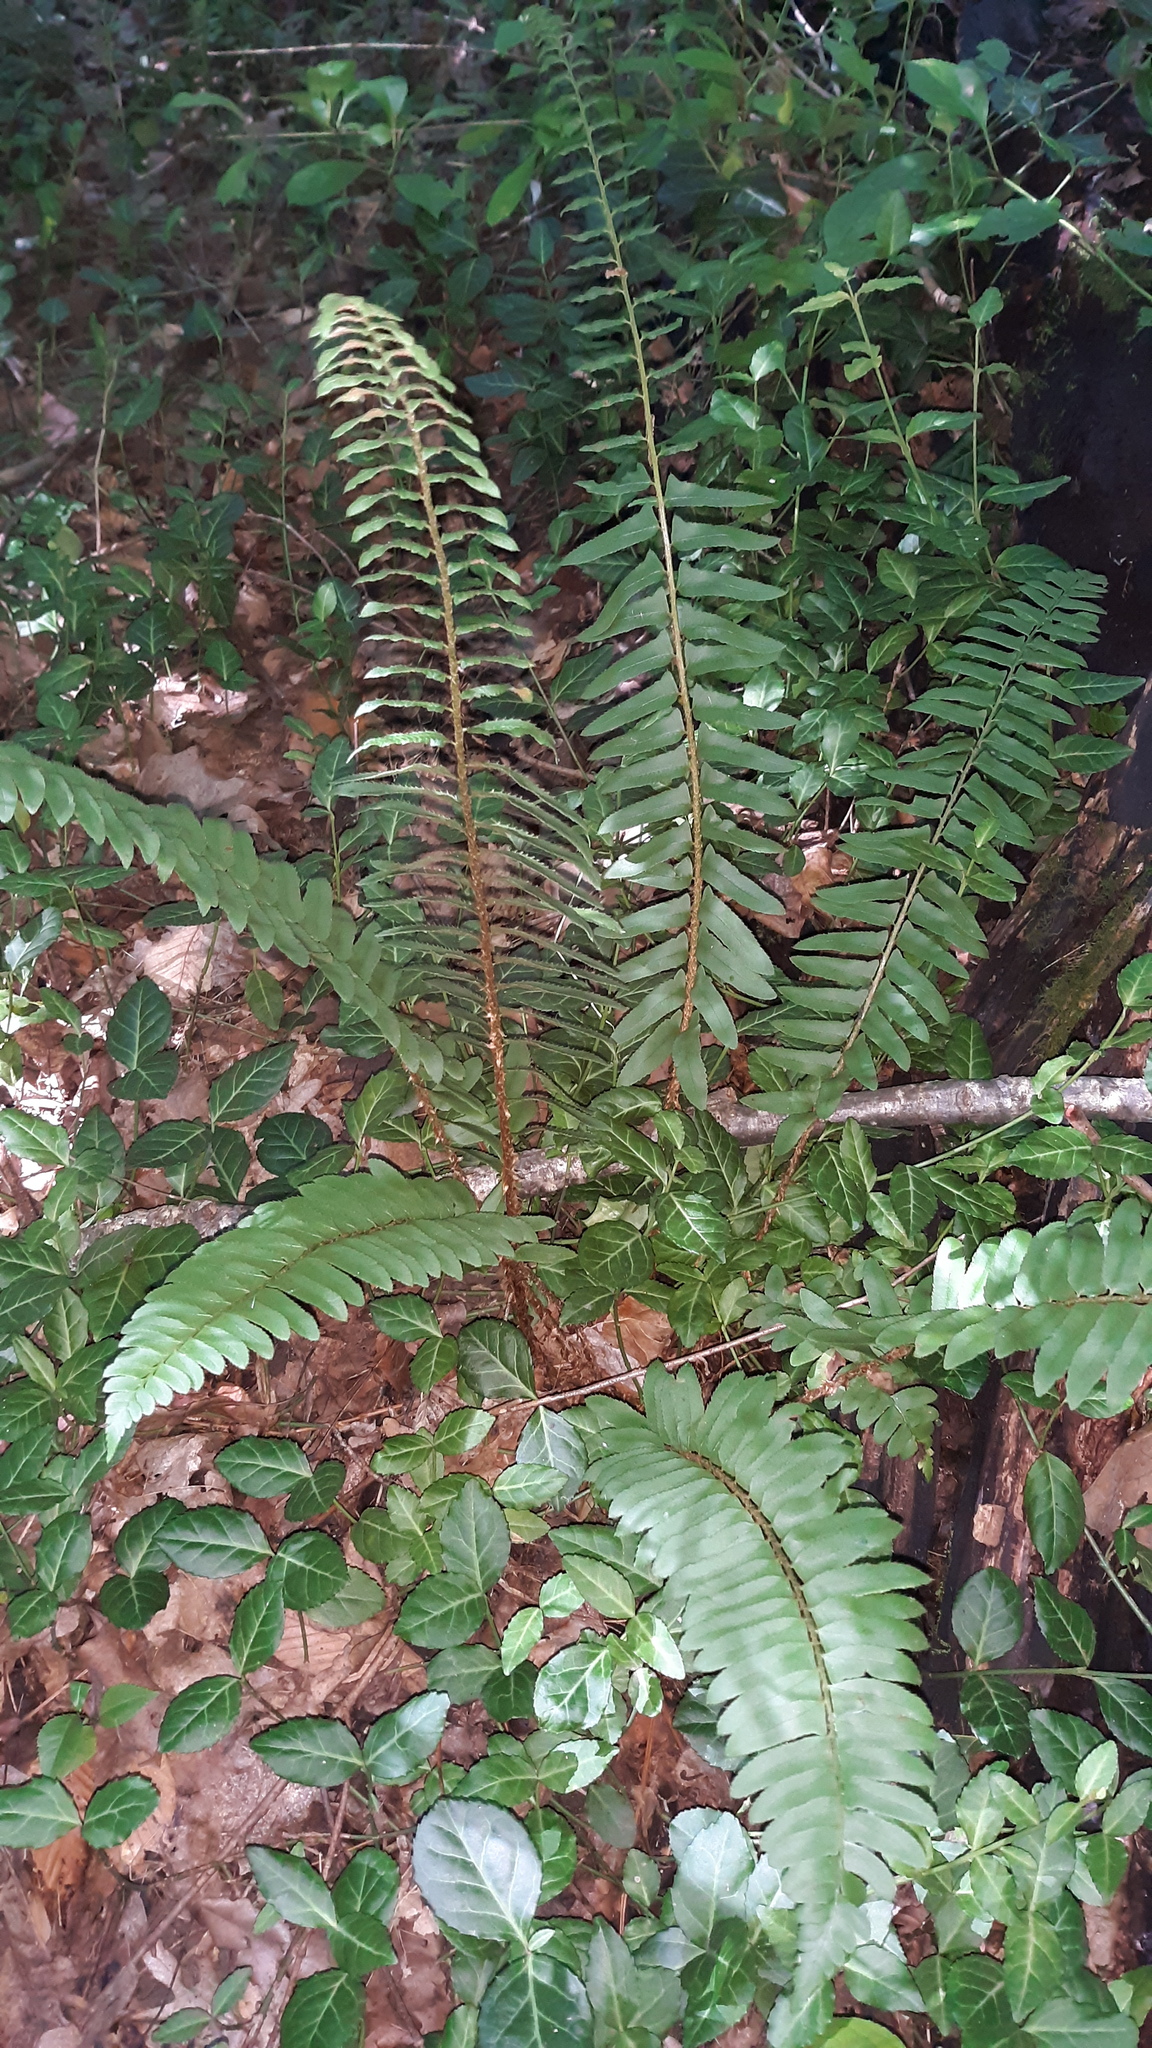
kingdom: Plantae
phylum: Tracheophyta
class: Polypodiopsida
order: Polypodiales
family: Dryopteridaceae
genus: Polystichum
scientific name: Polystichum acrostichoides
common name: Christmas fern
